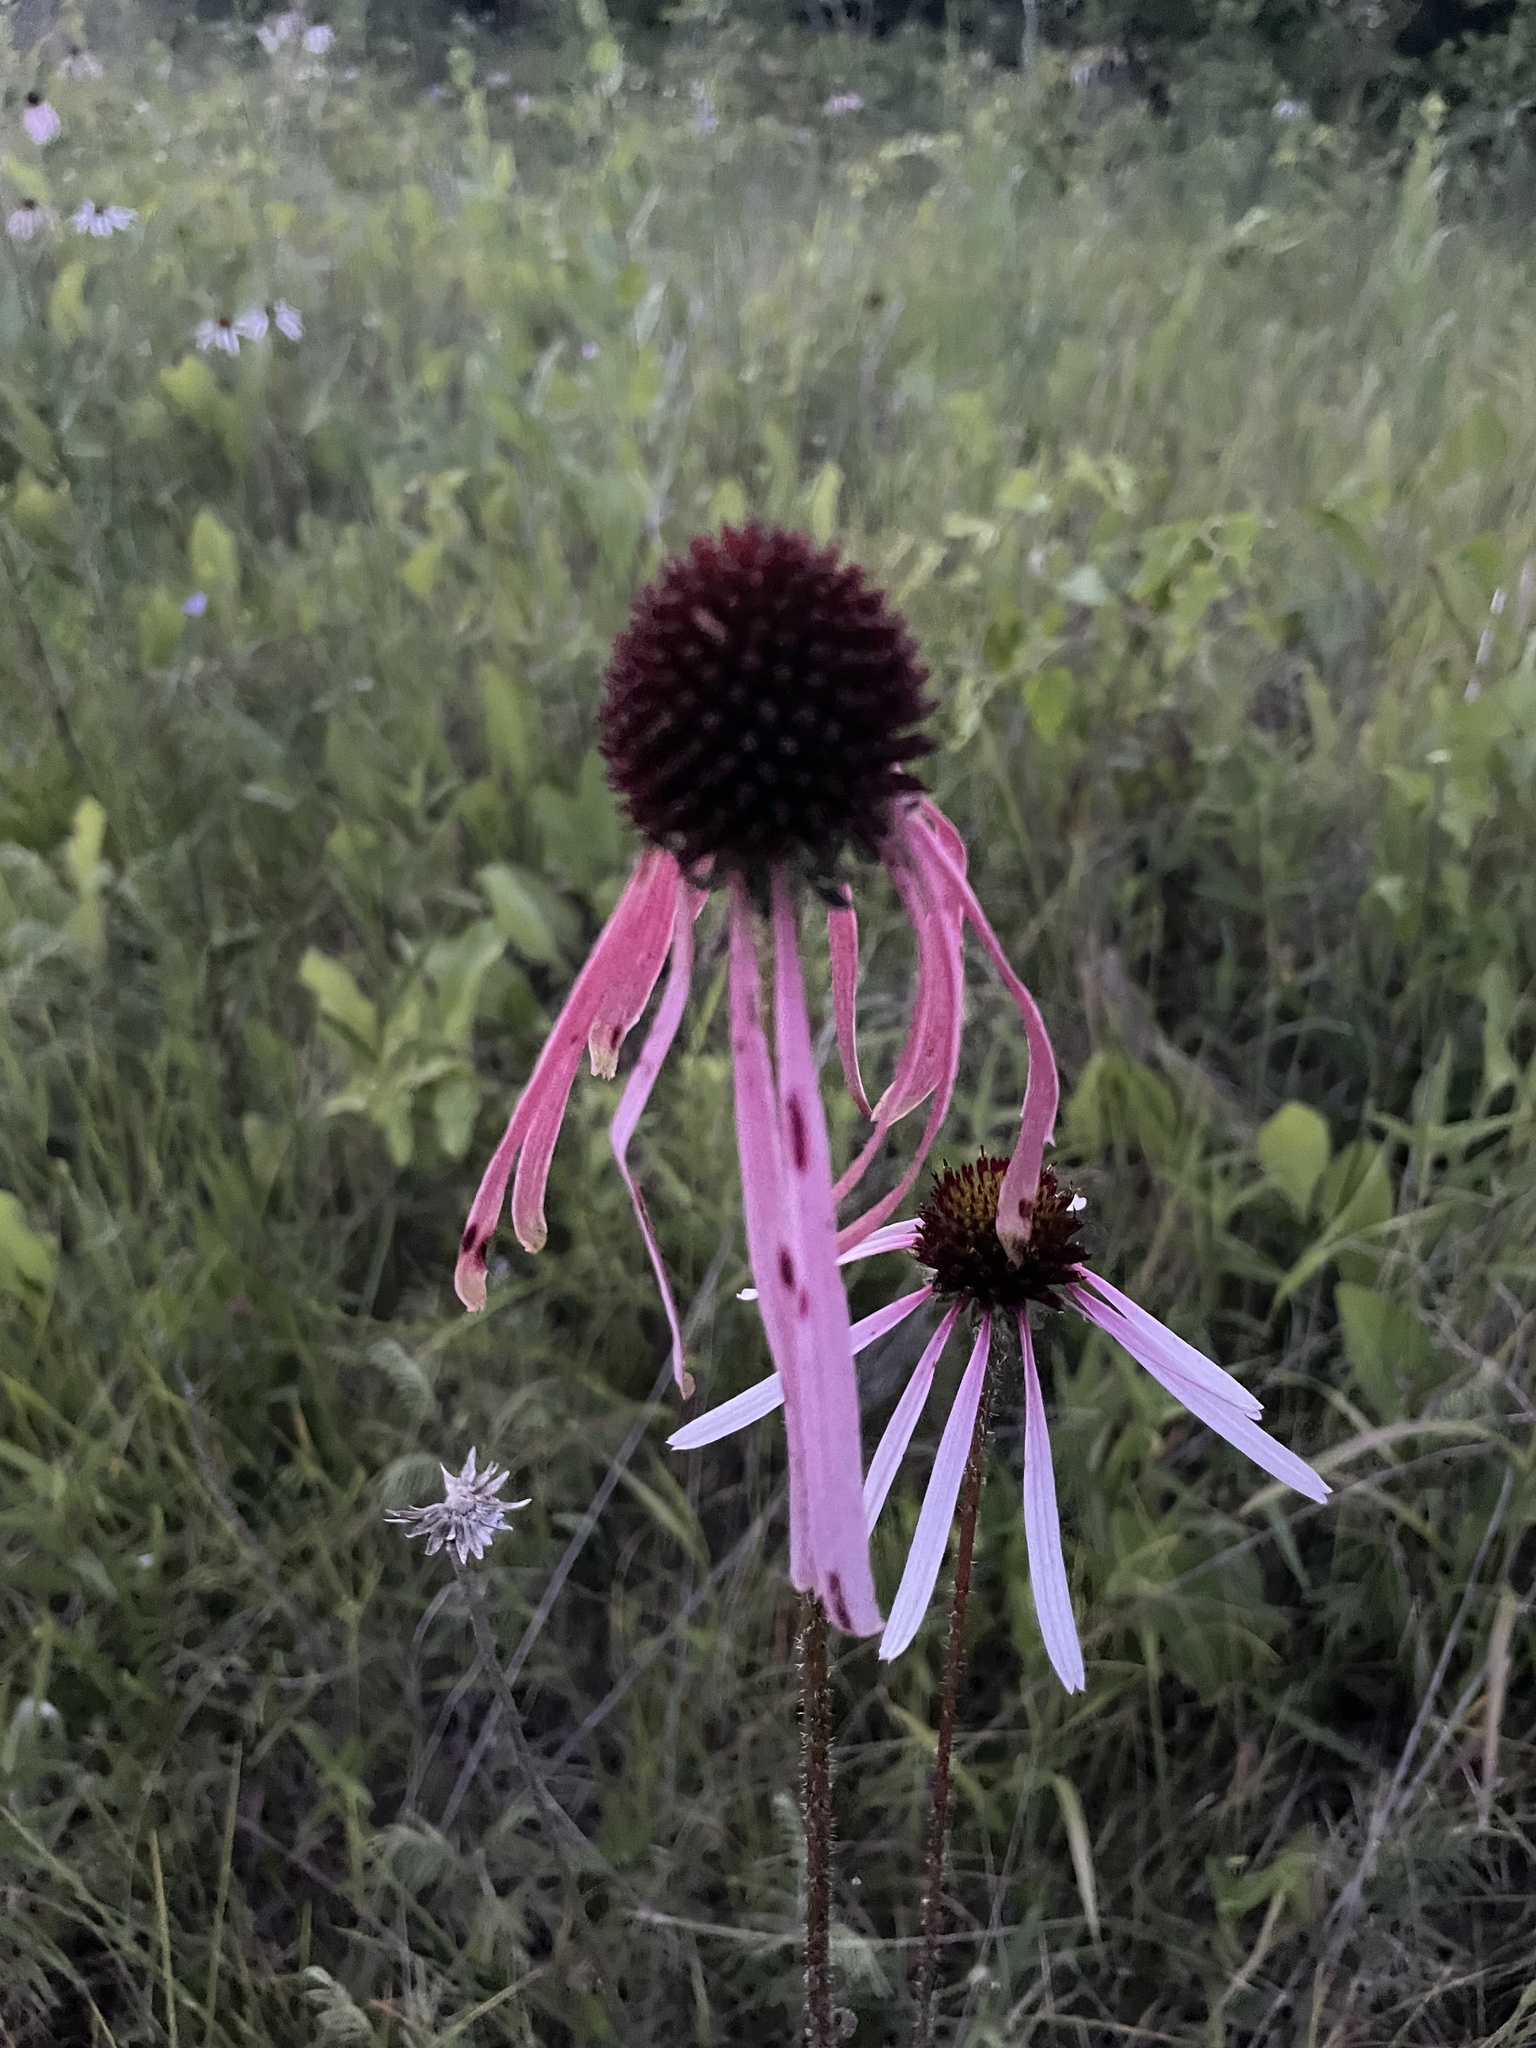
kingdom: Plantae
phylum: Tracheophyta
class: Magnoliopsida
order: Asterales
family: Asteraceae
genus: Echinacea
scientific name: Echinacea sanguinea
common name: Sanguine purple-coneflower
